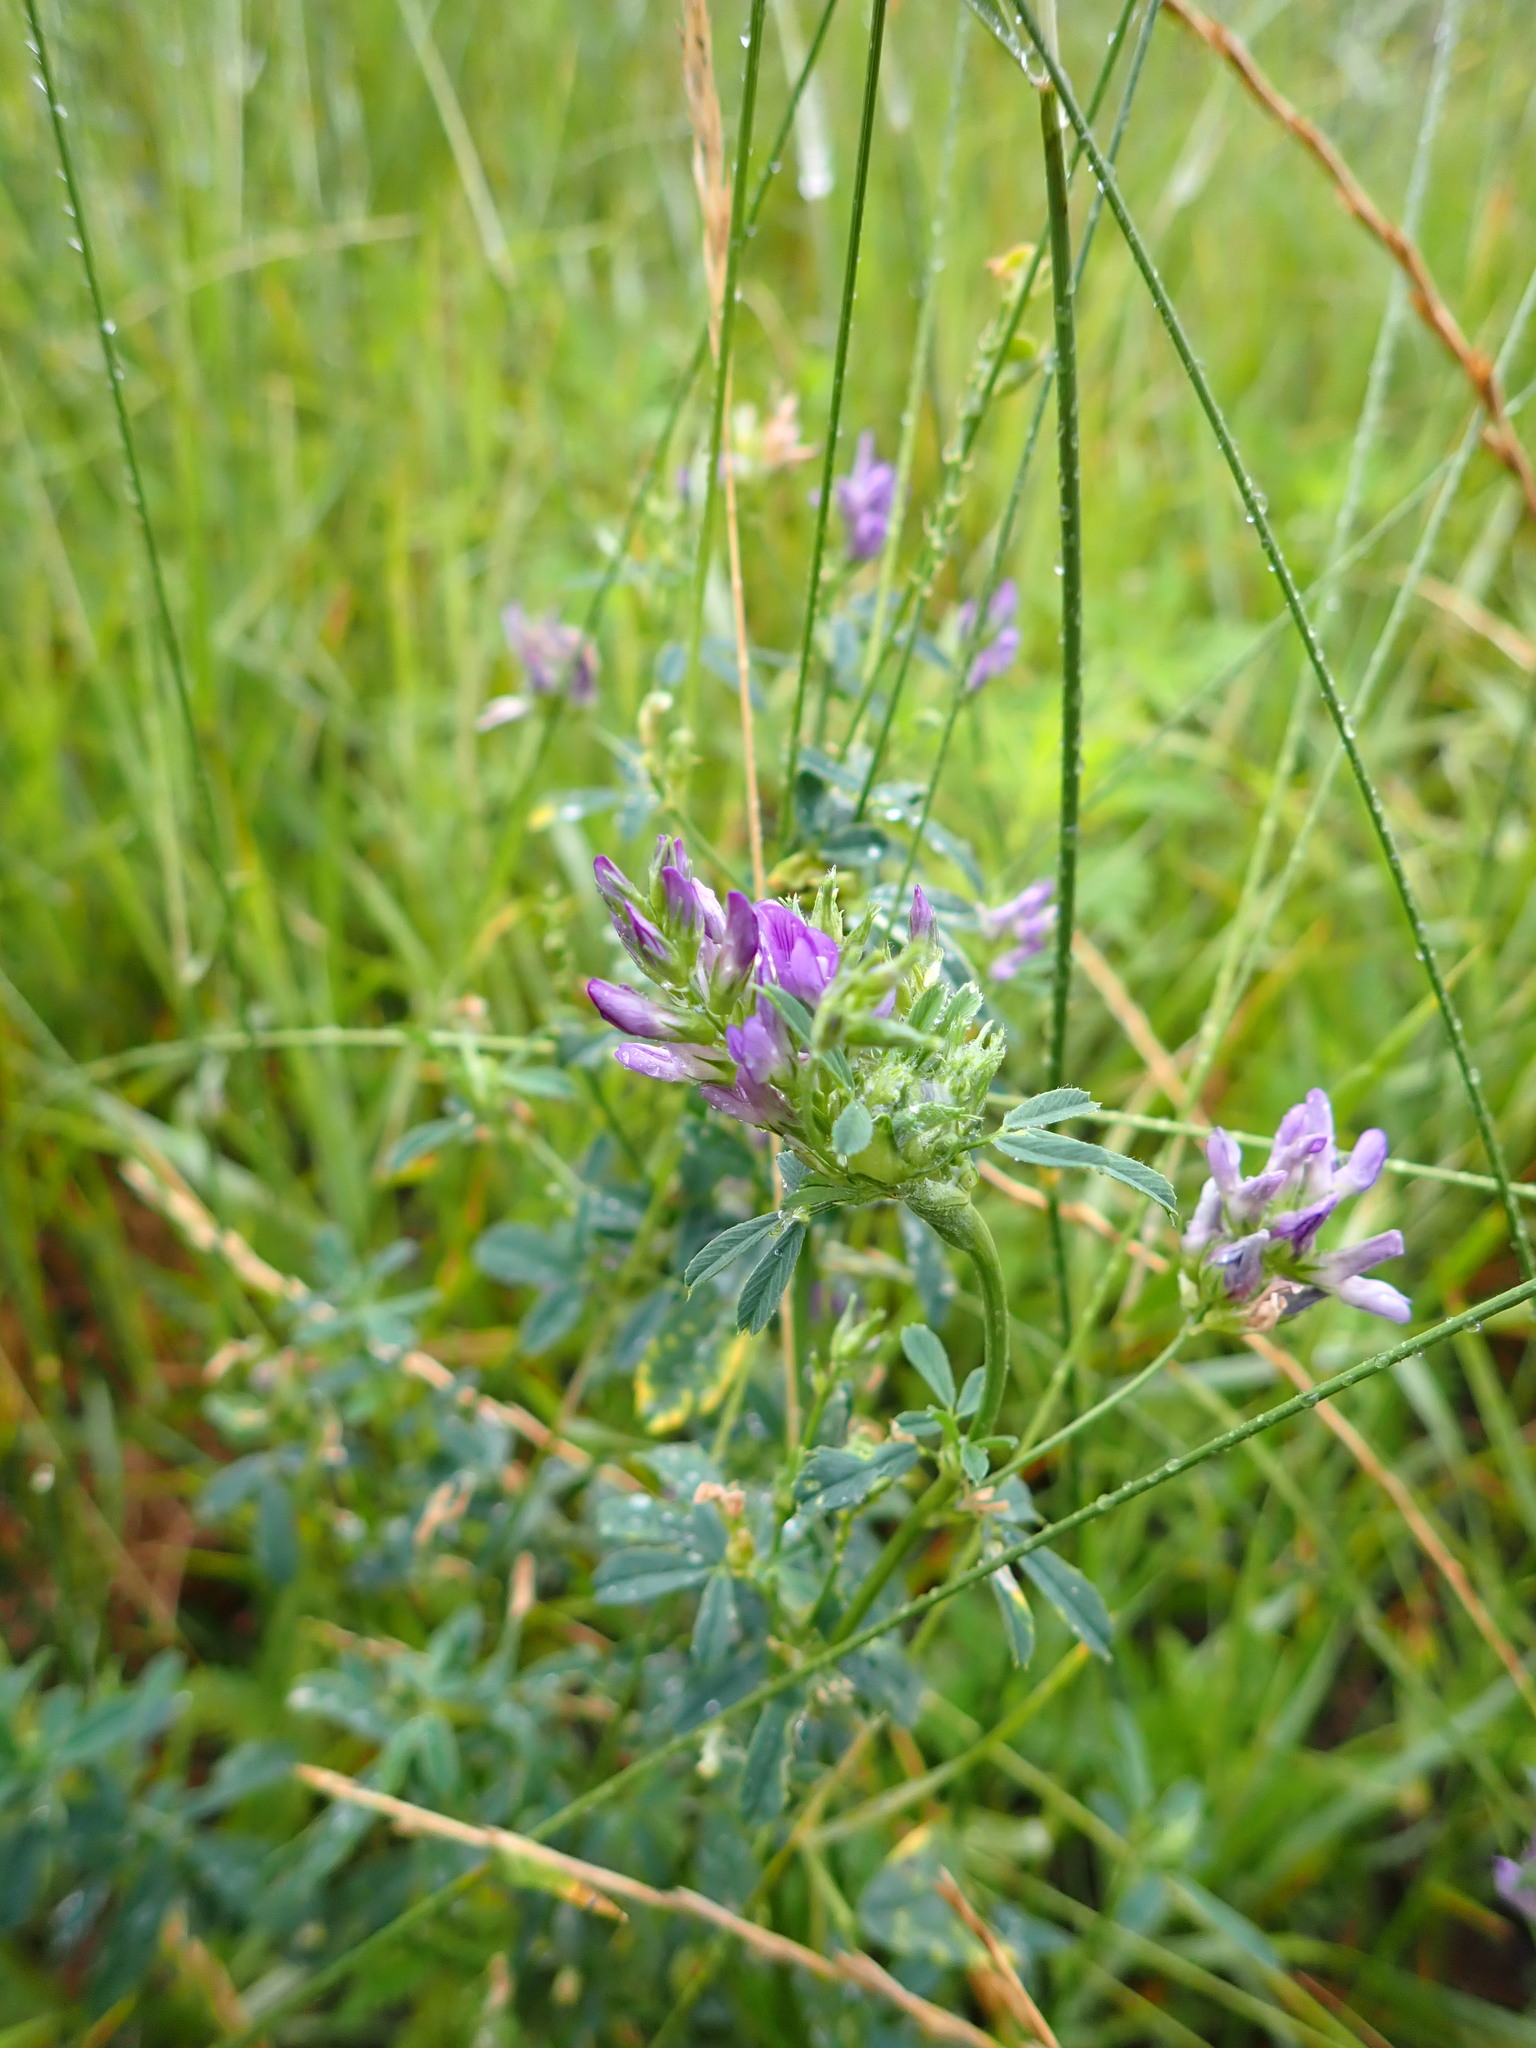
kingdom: Plantae
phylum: Tracheophyta
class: Magnoliopsida
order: Fabales
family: Fabaceae
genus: Medicago
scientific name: Medicago sativa
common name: Alfalfa
